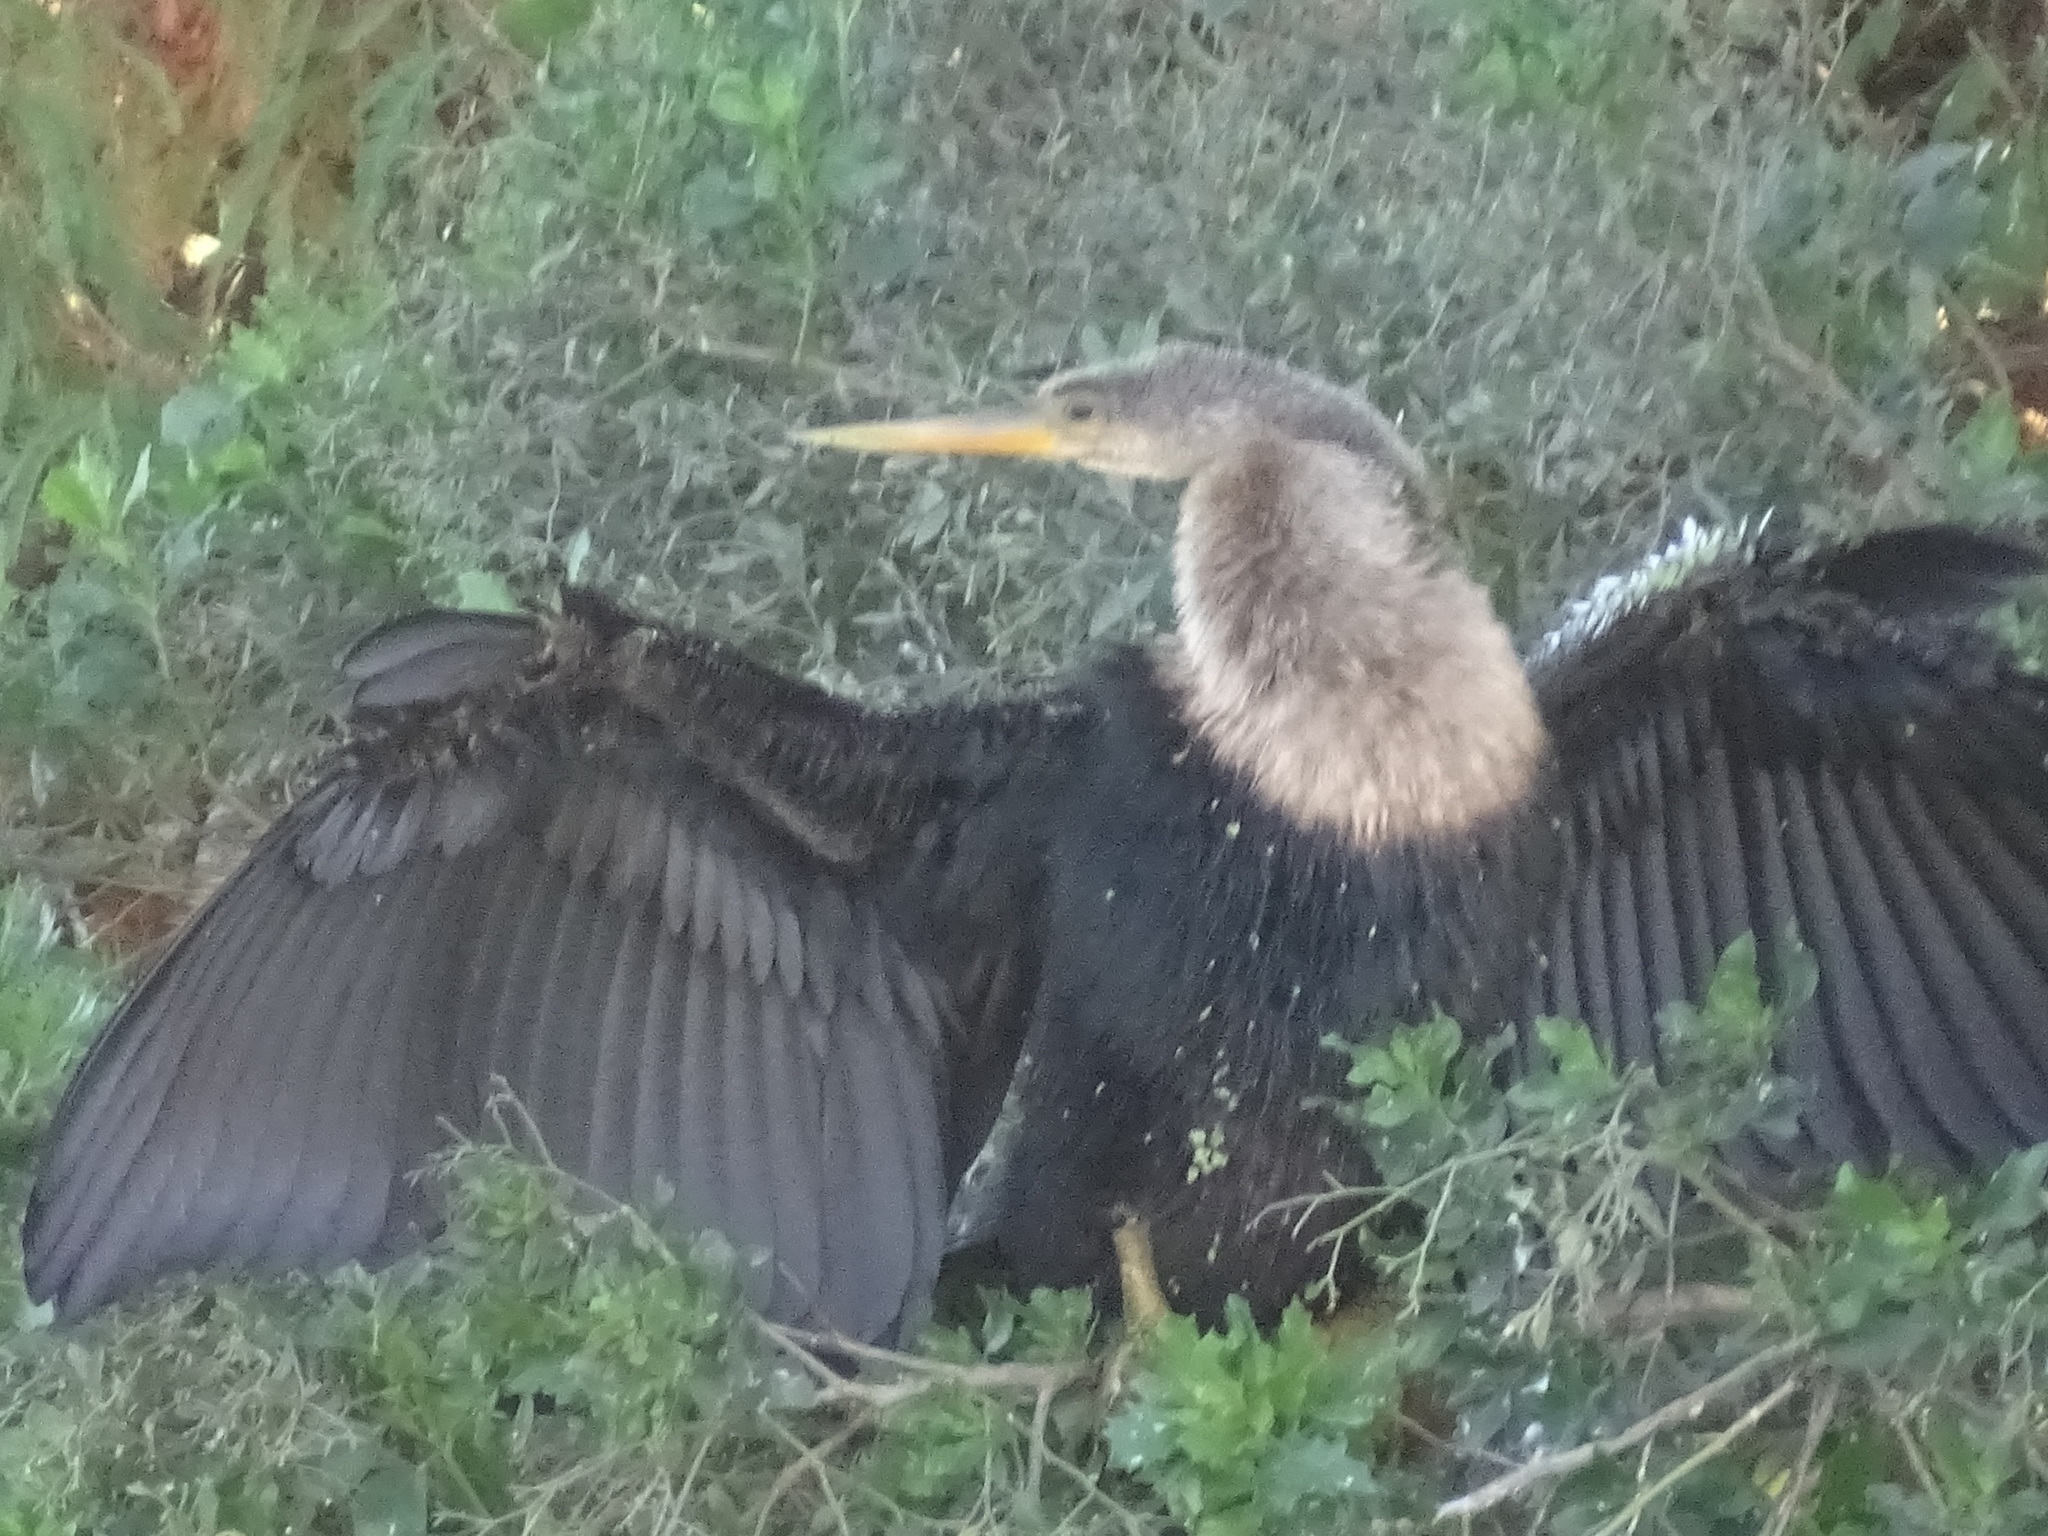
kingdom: Animalia
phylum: Chordata
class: Aves
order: Suliformes
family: Anhingidae
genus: Anhinga
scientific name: Anhinga anhinga
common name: Anhinga
